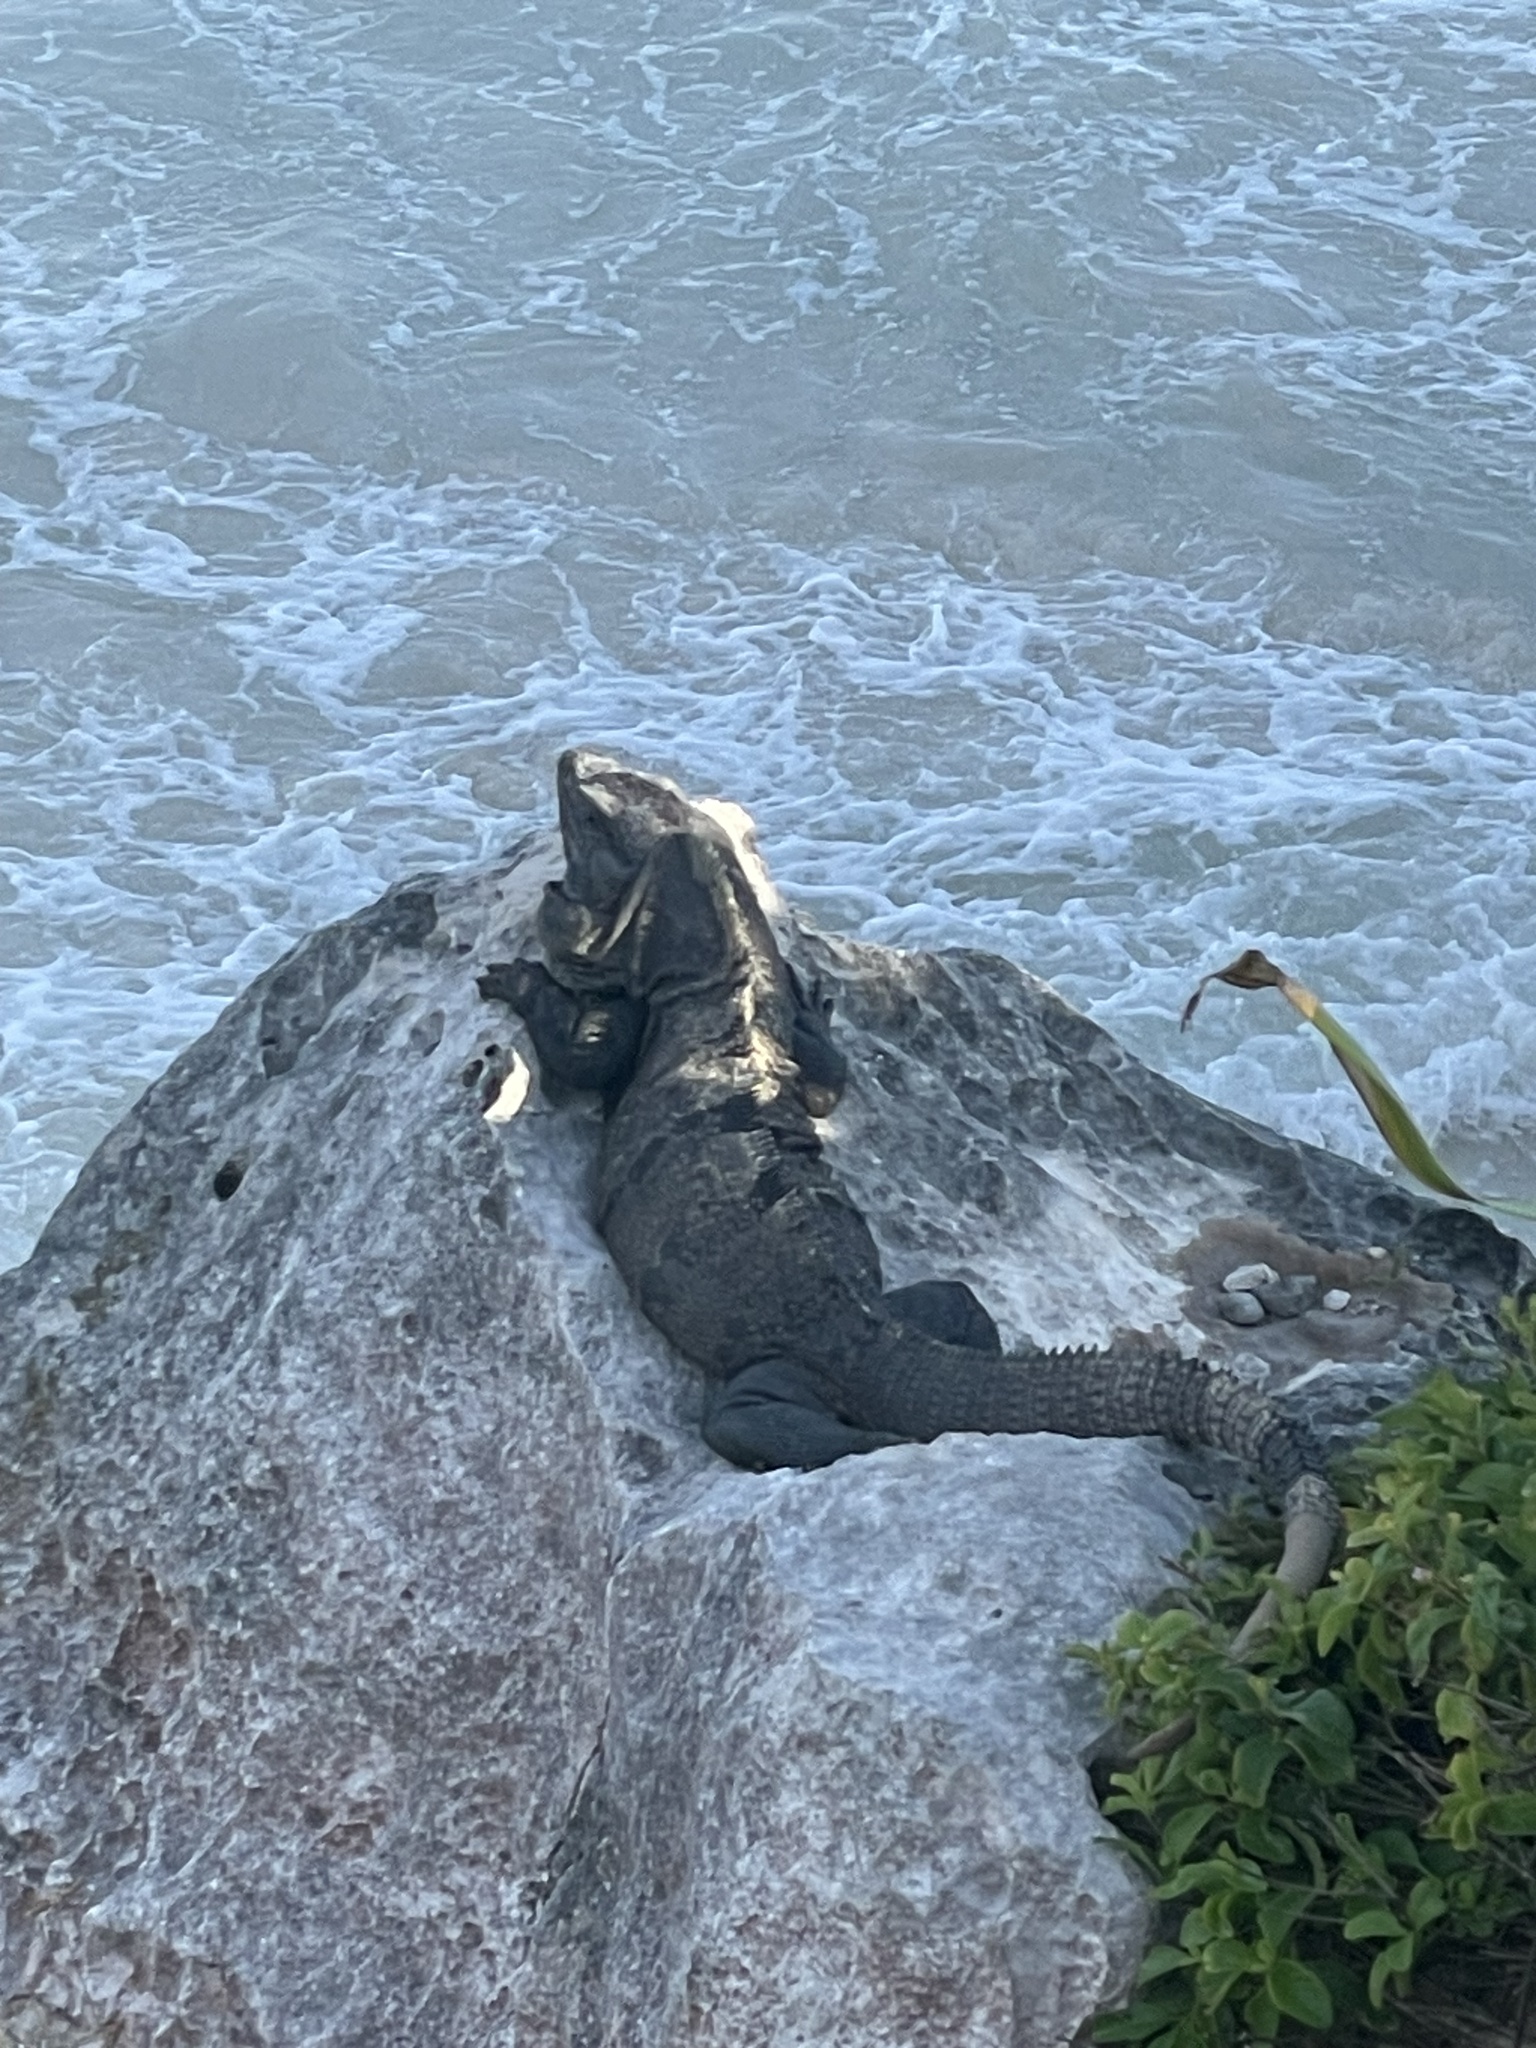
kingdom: Animalia
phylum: Chordata
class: Squamata
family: Iguanidae
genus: Ctenosaura
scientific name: Ctenosaura similis
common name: Black spiny-tailed iguana
